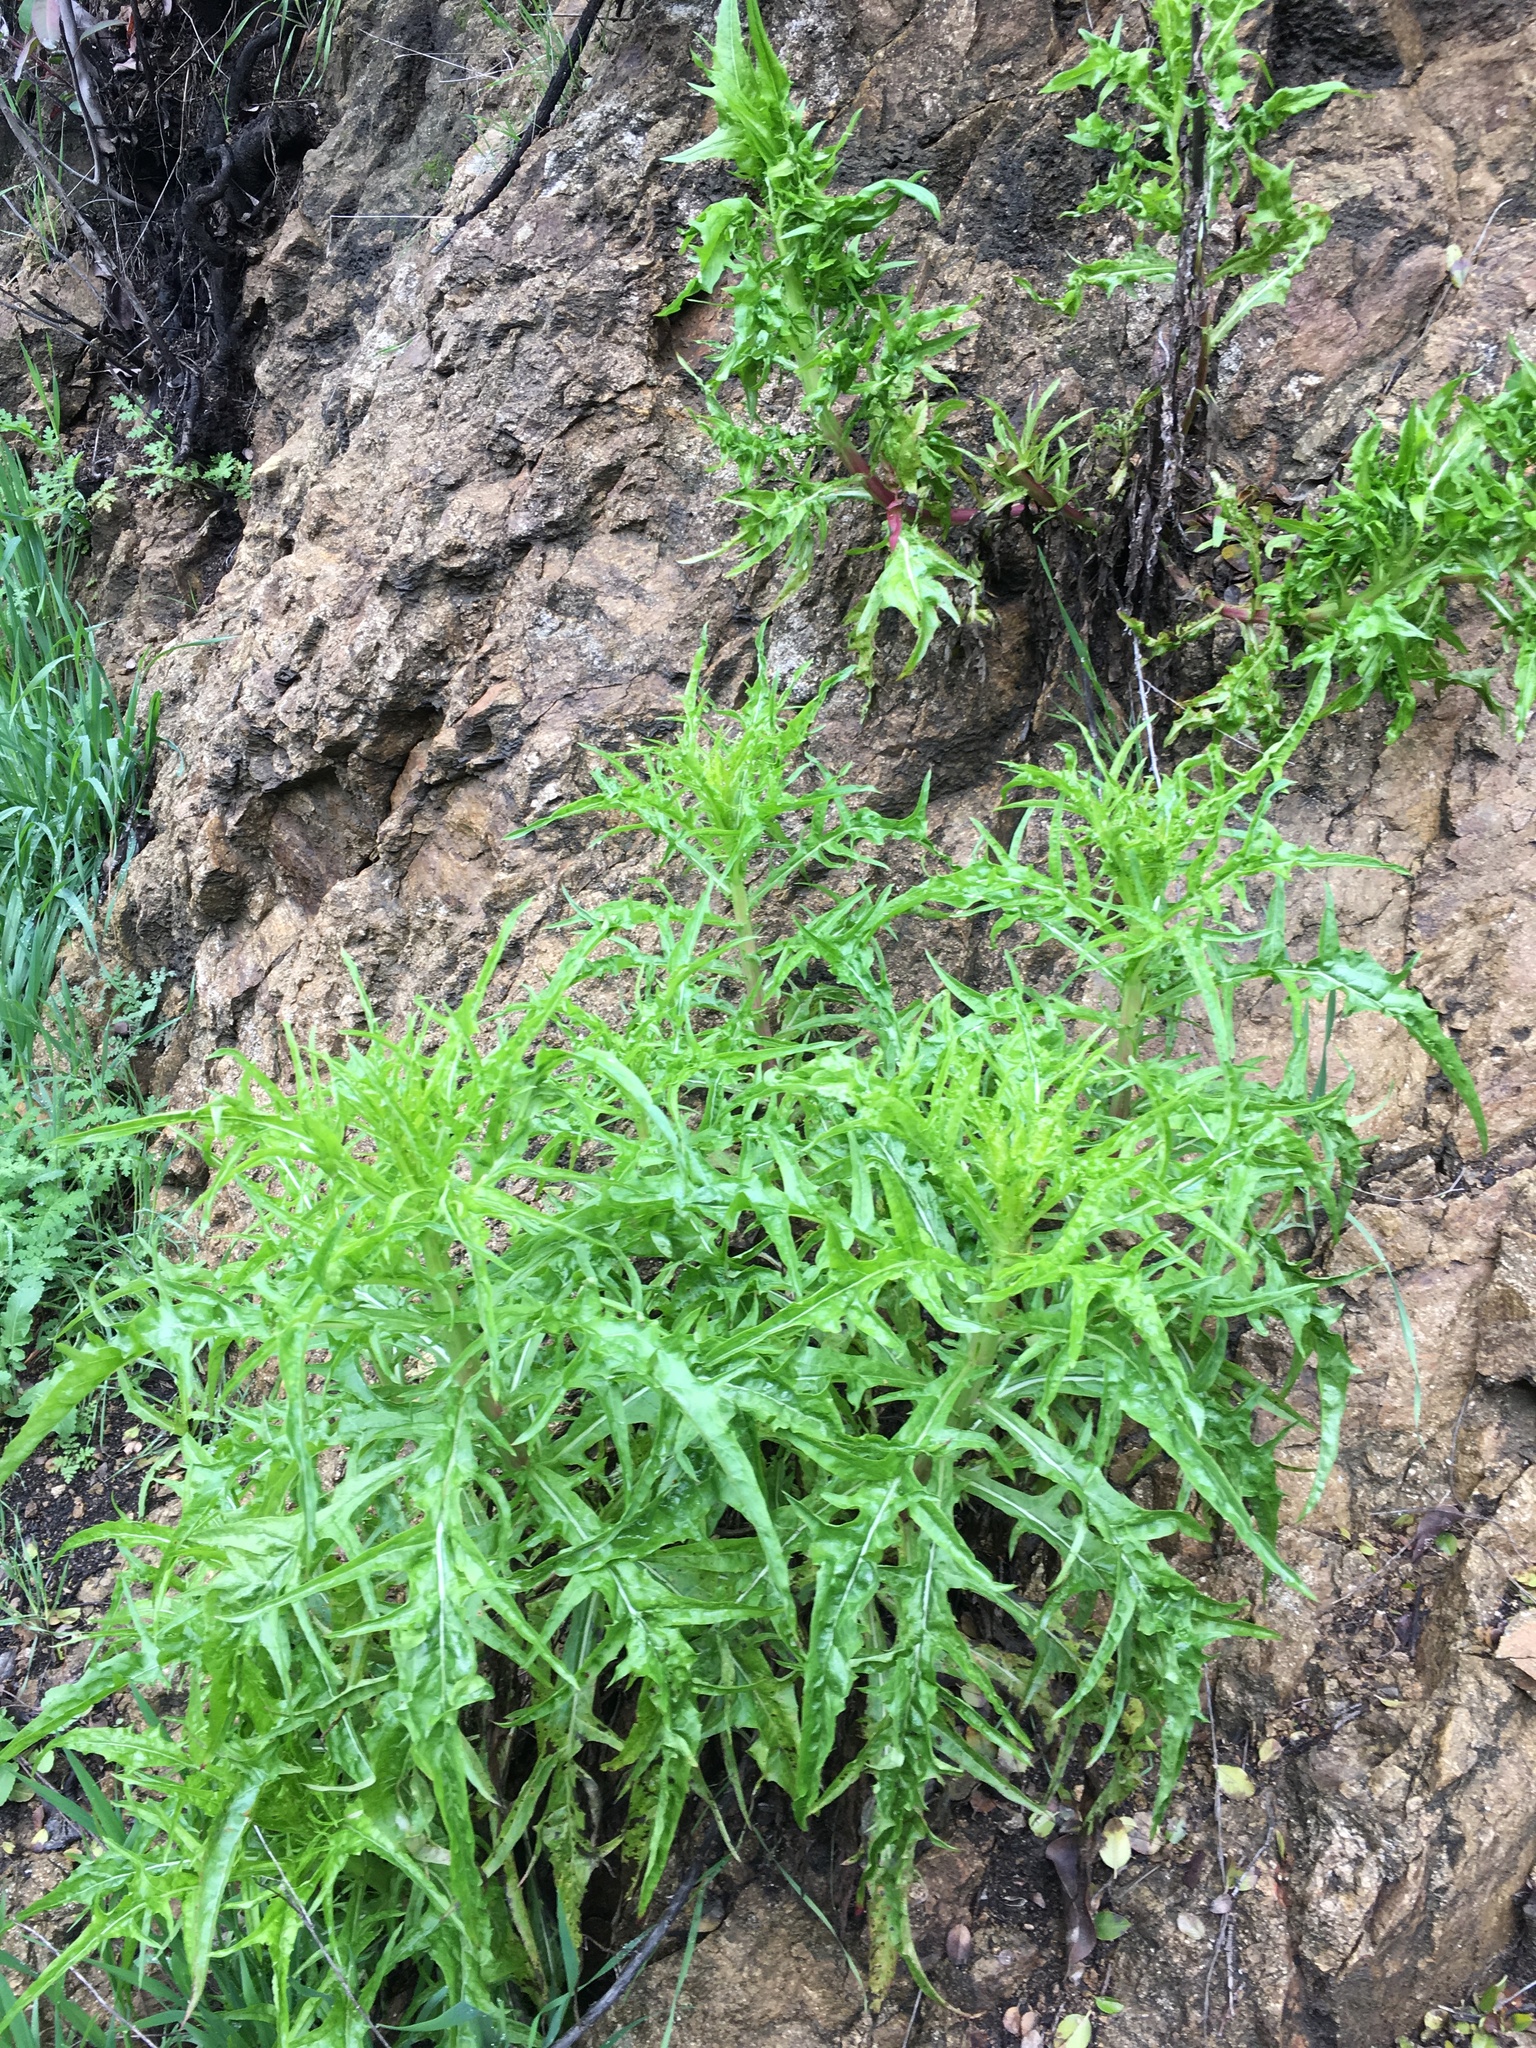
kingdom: Plantae
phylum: Tracheophyta
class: Magnoliopsida
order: Asterales
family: Asteraceae
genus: Malacothrix
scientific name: Malacothrix saxatilis
